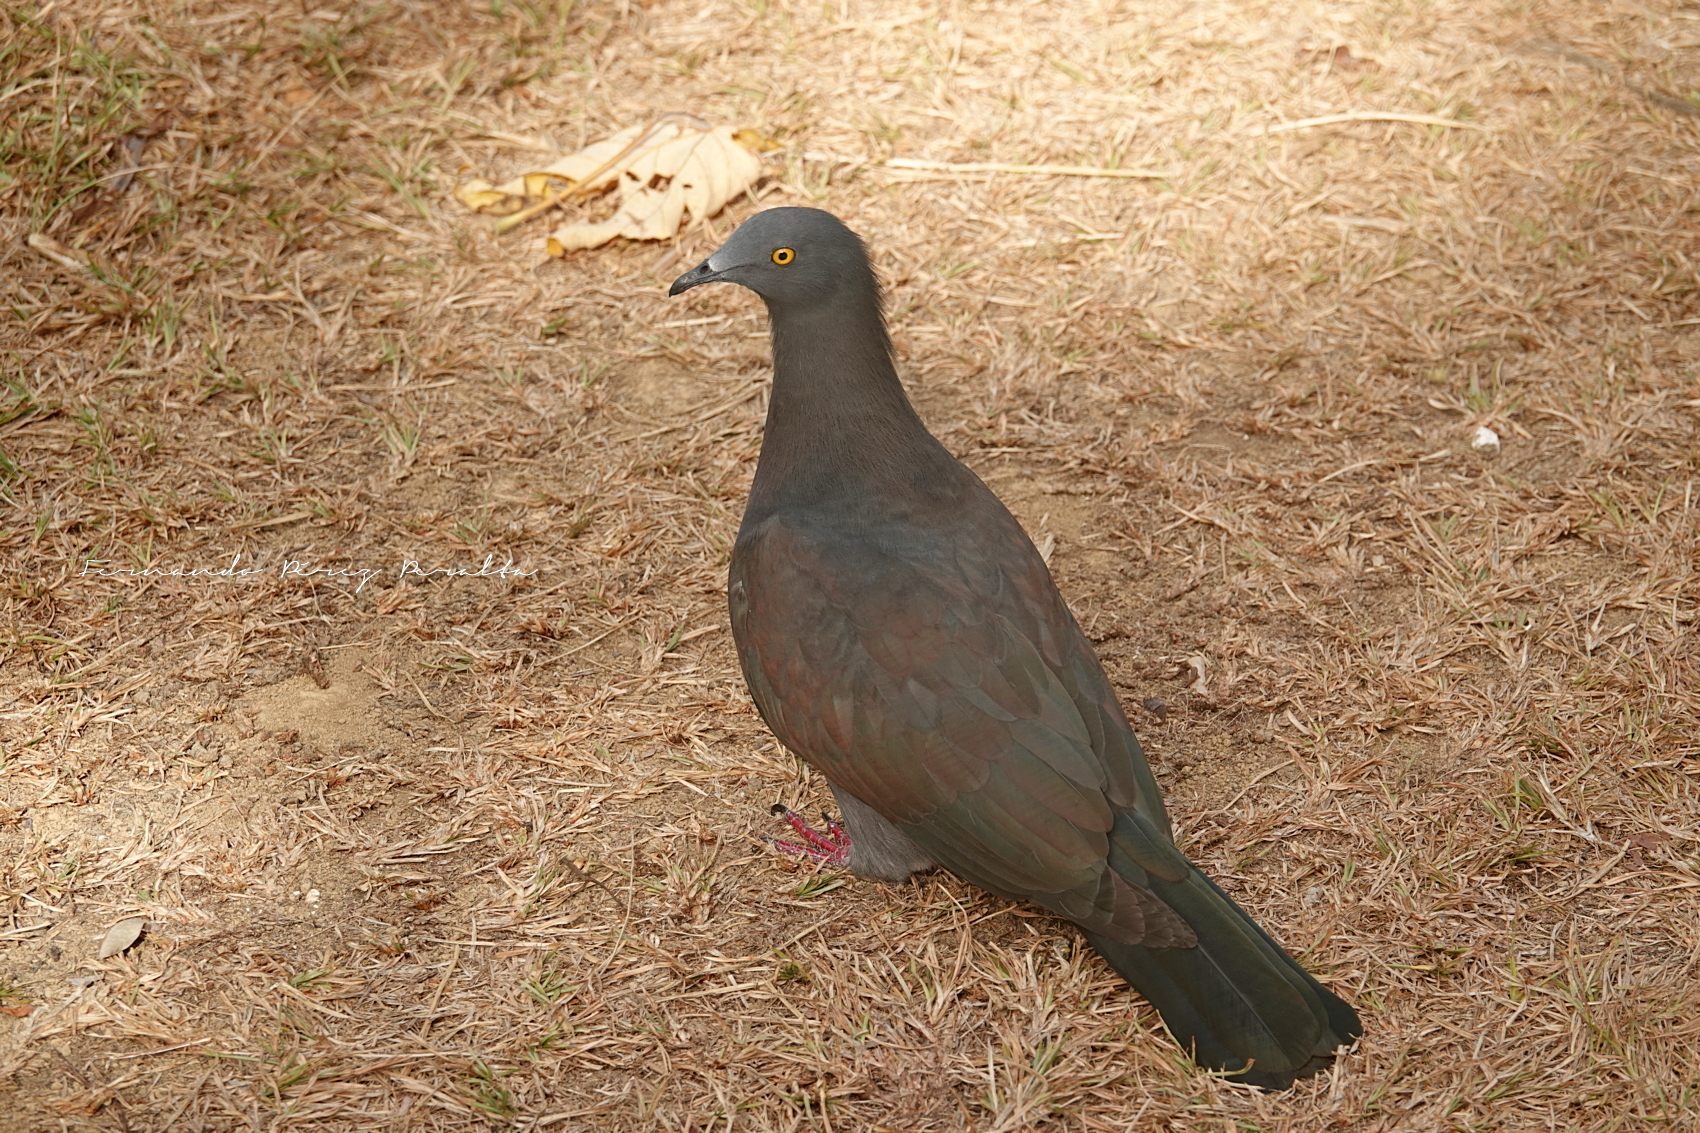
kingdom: Animalia
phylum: Chordata
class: Aves
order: Columbiformes
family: Columbidae
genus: Ducula
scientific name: Ducula whartoni
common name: Christmas imperial pigeon
